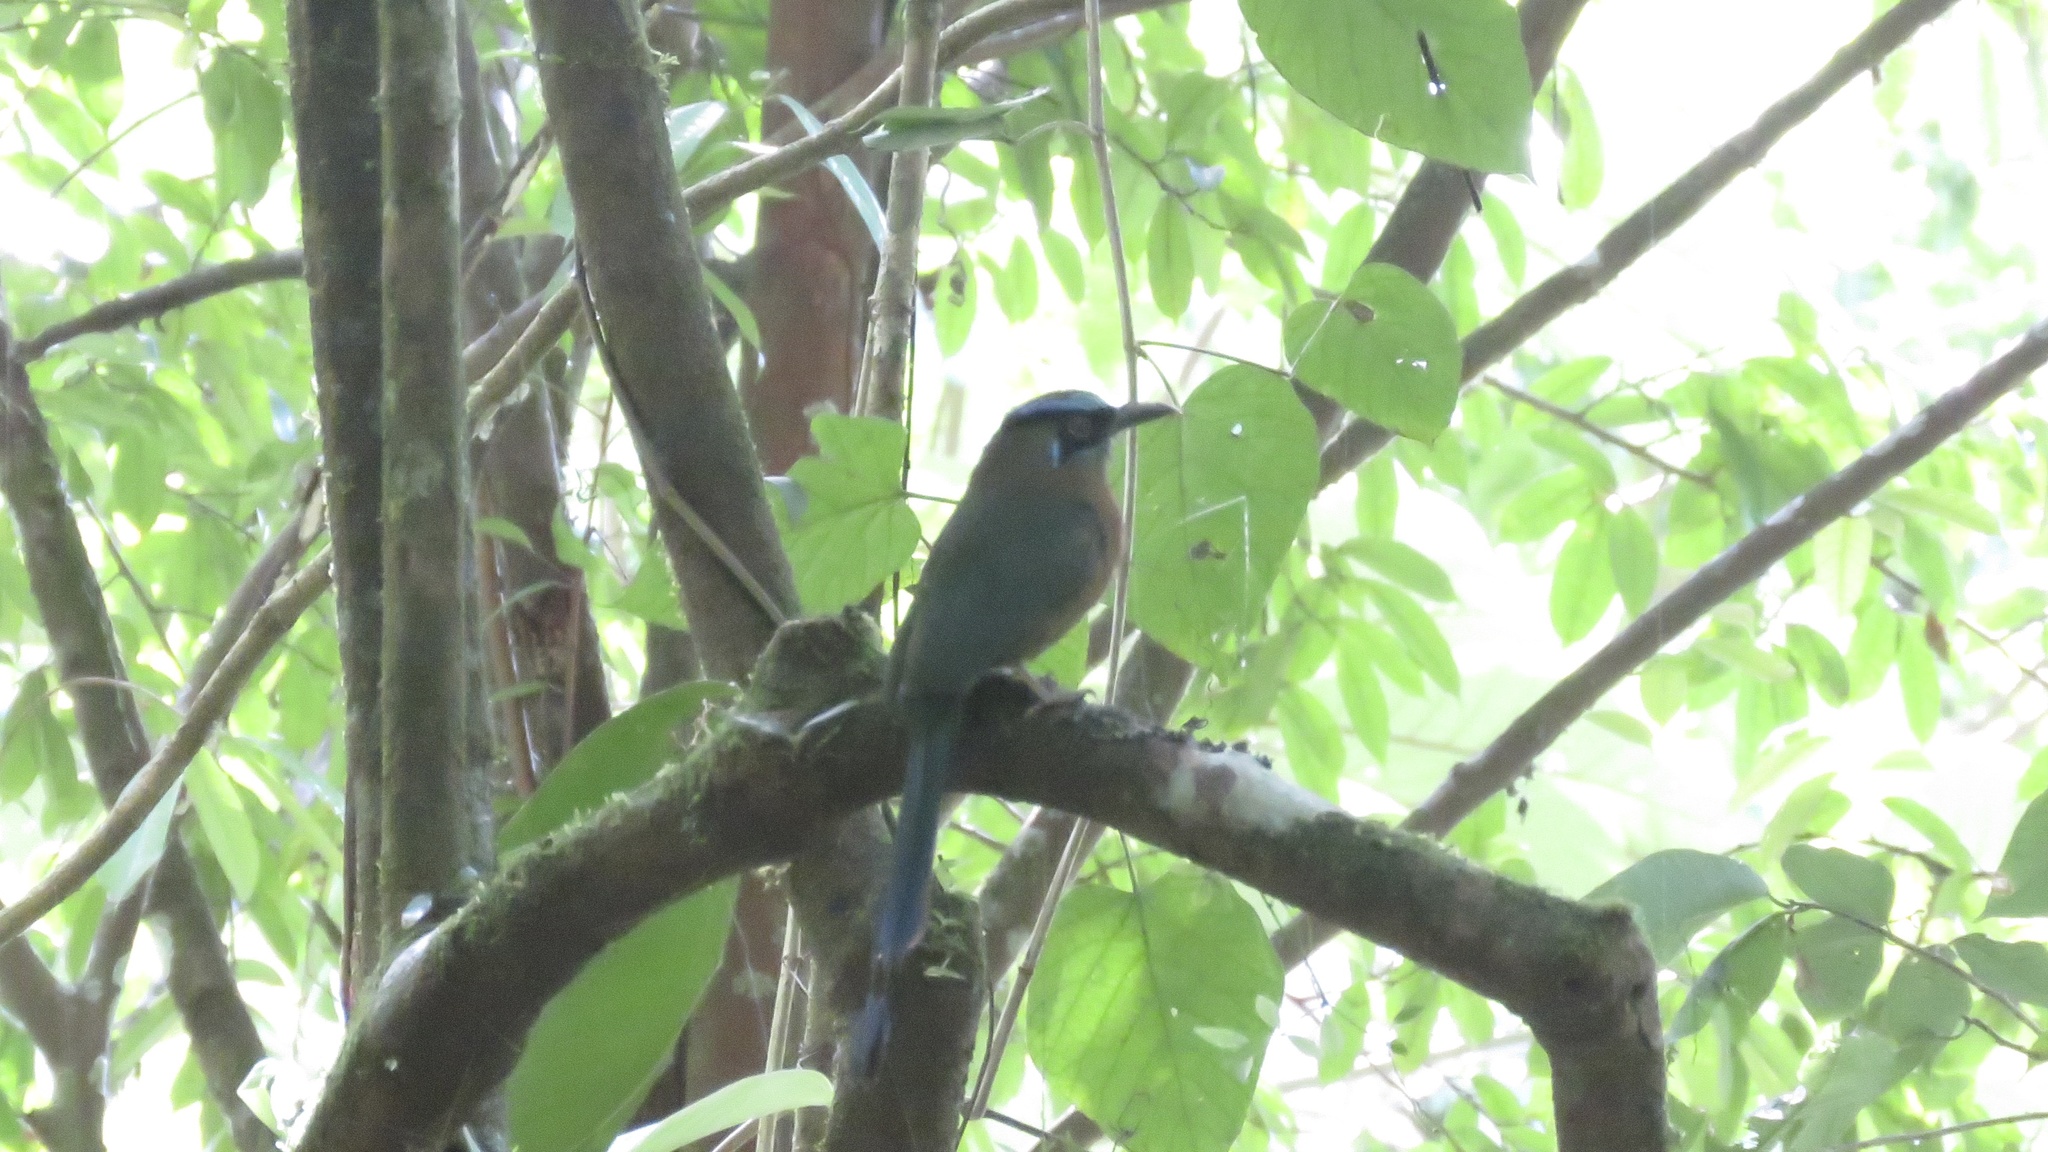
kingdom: Animalia
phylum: Chordata
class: Aves
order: Coraciiformes
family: Momotidae
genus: Momotus
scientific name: Momotus lessonii
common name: Lesson's motmot
